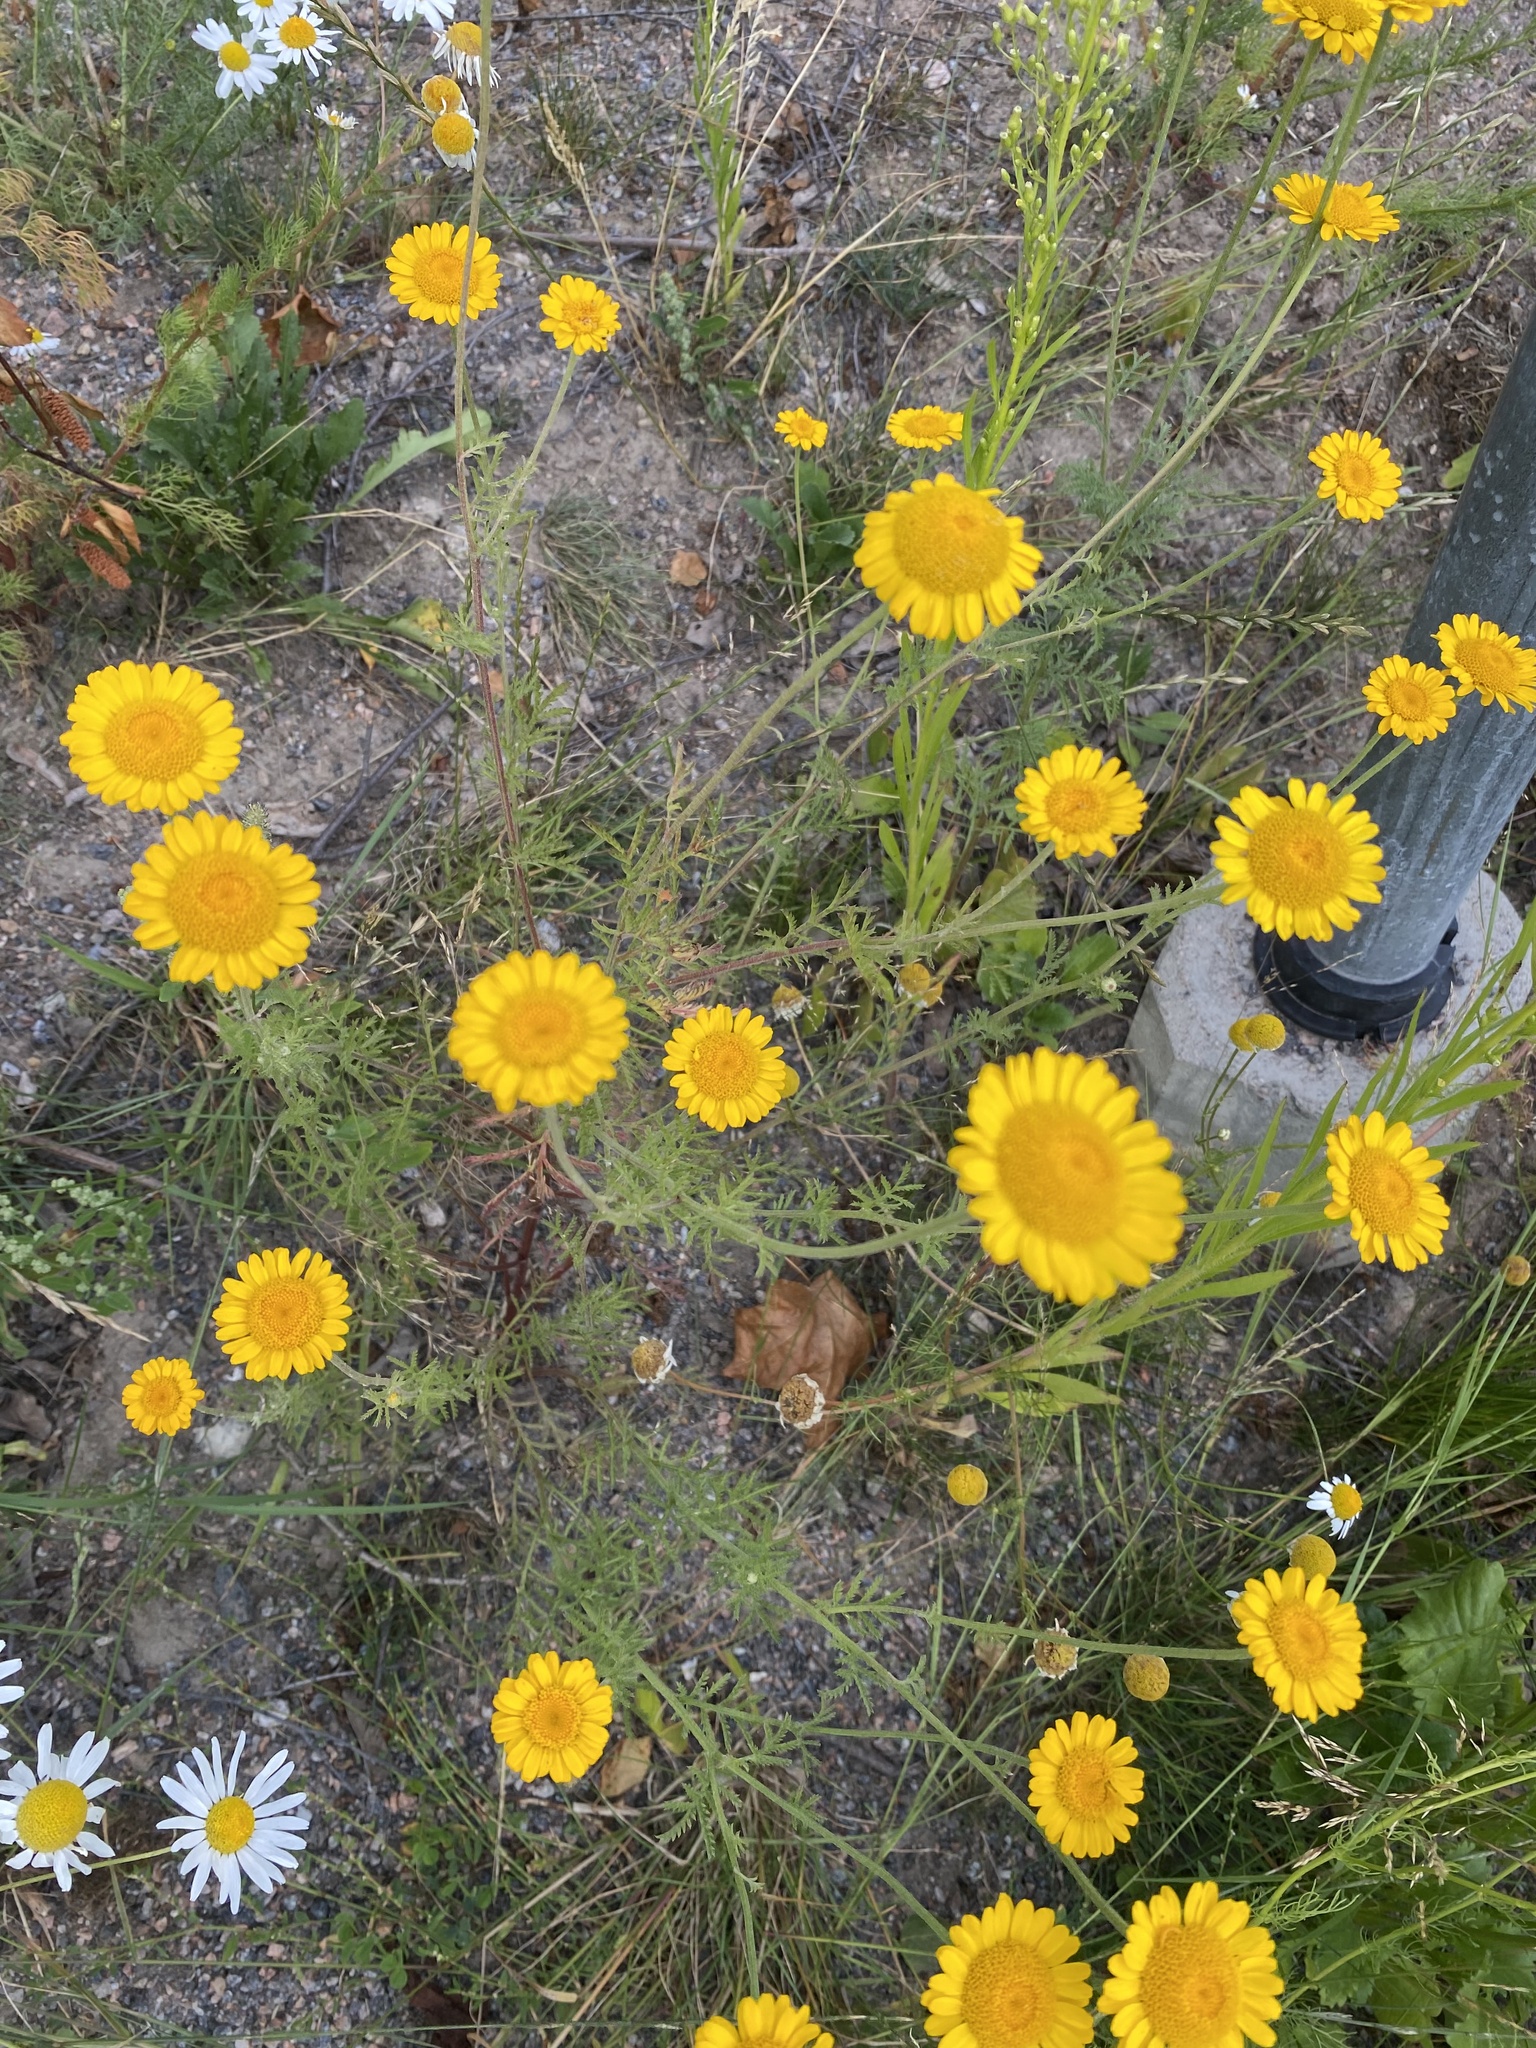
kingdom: Plantae
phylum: Tracheophyta
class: Magnoliopsida
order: Asterales
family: Asteraceae
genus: Cota
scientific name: Cota tinctoria
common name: Golden chamomile
